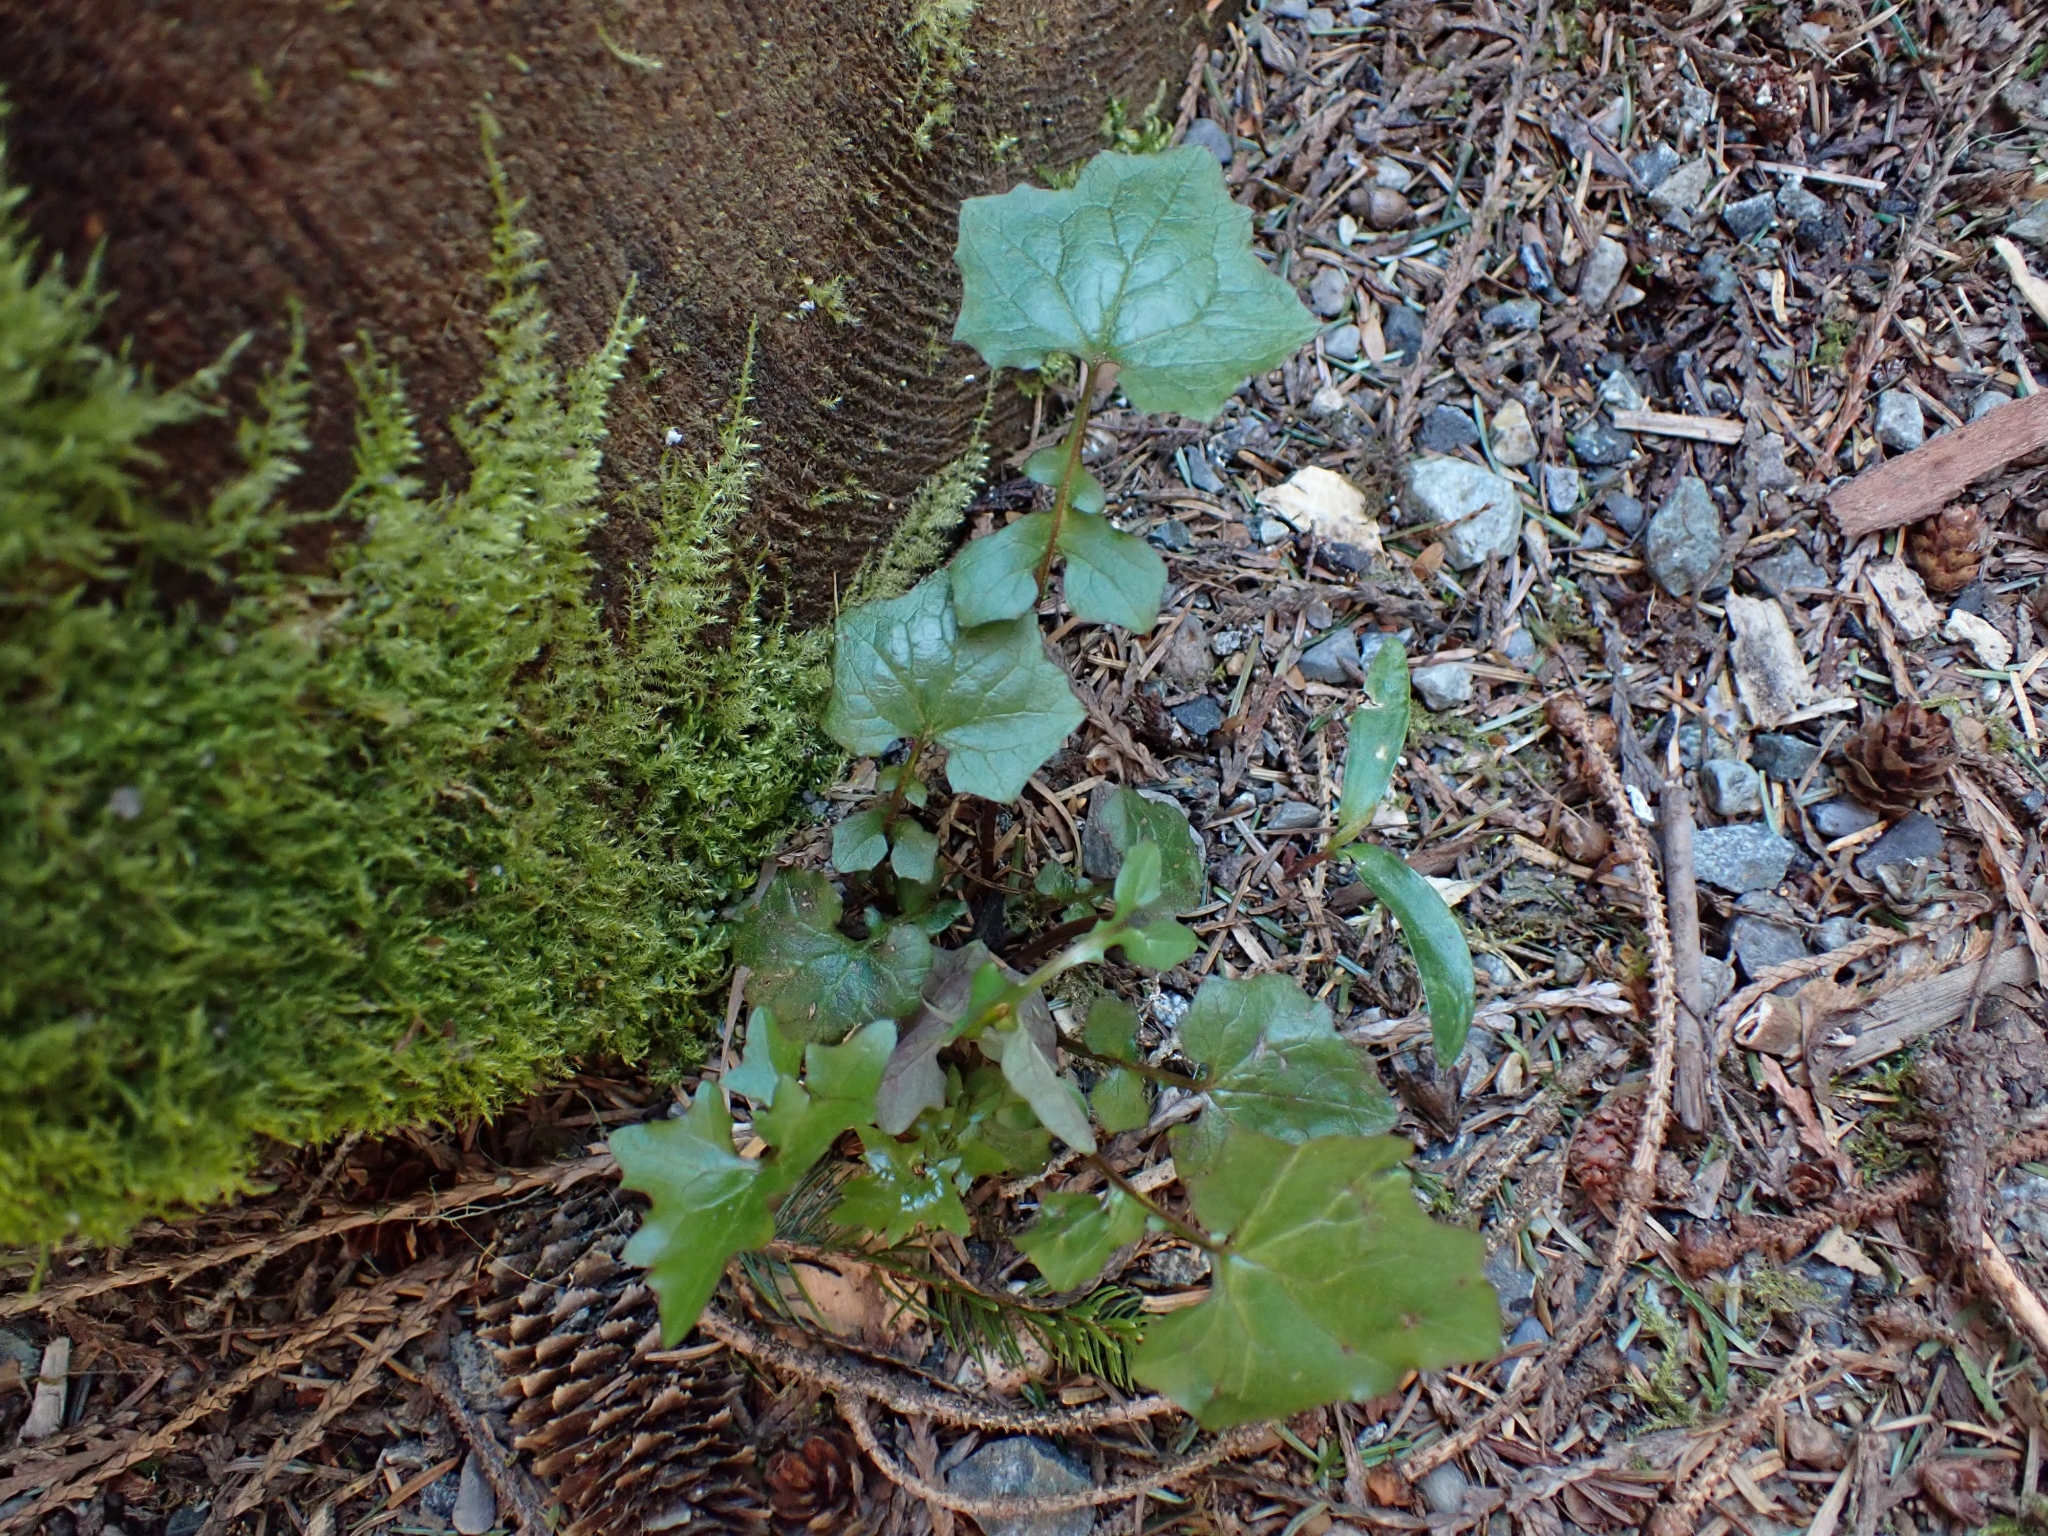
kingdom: Plantae
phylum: Tracheophyta
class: Magnoliopsida
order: Asterales
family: Asteraceae
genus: Mycelis
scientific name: Mycelis muralis
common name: Wall lettuce
